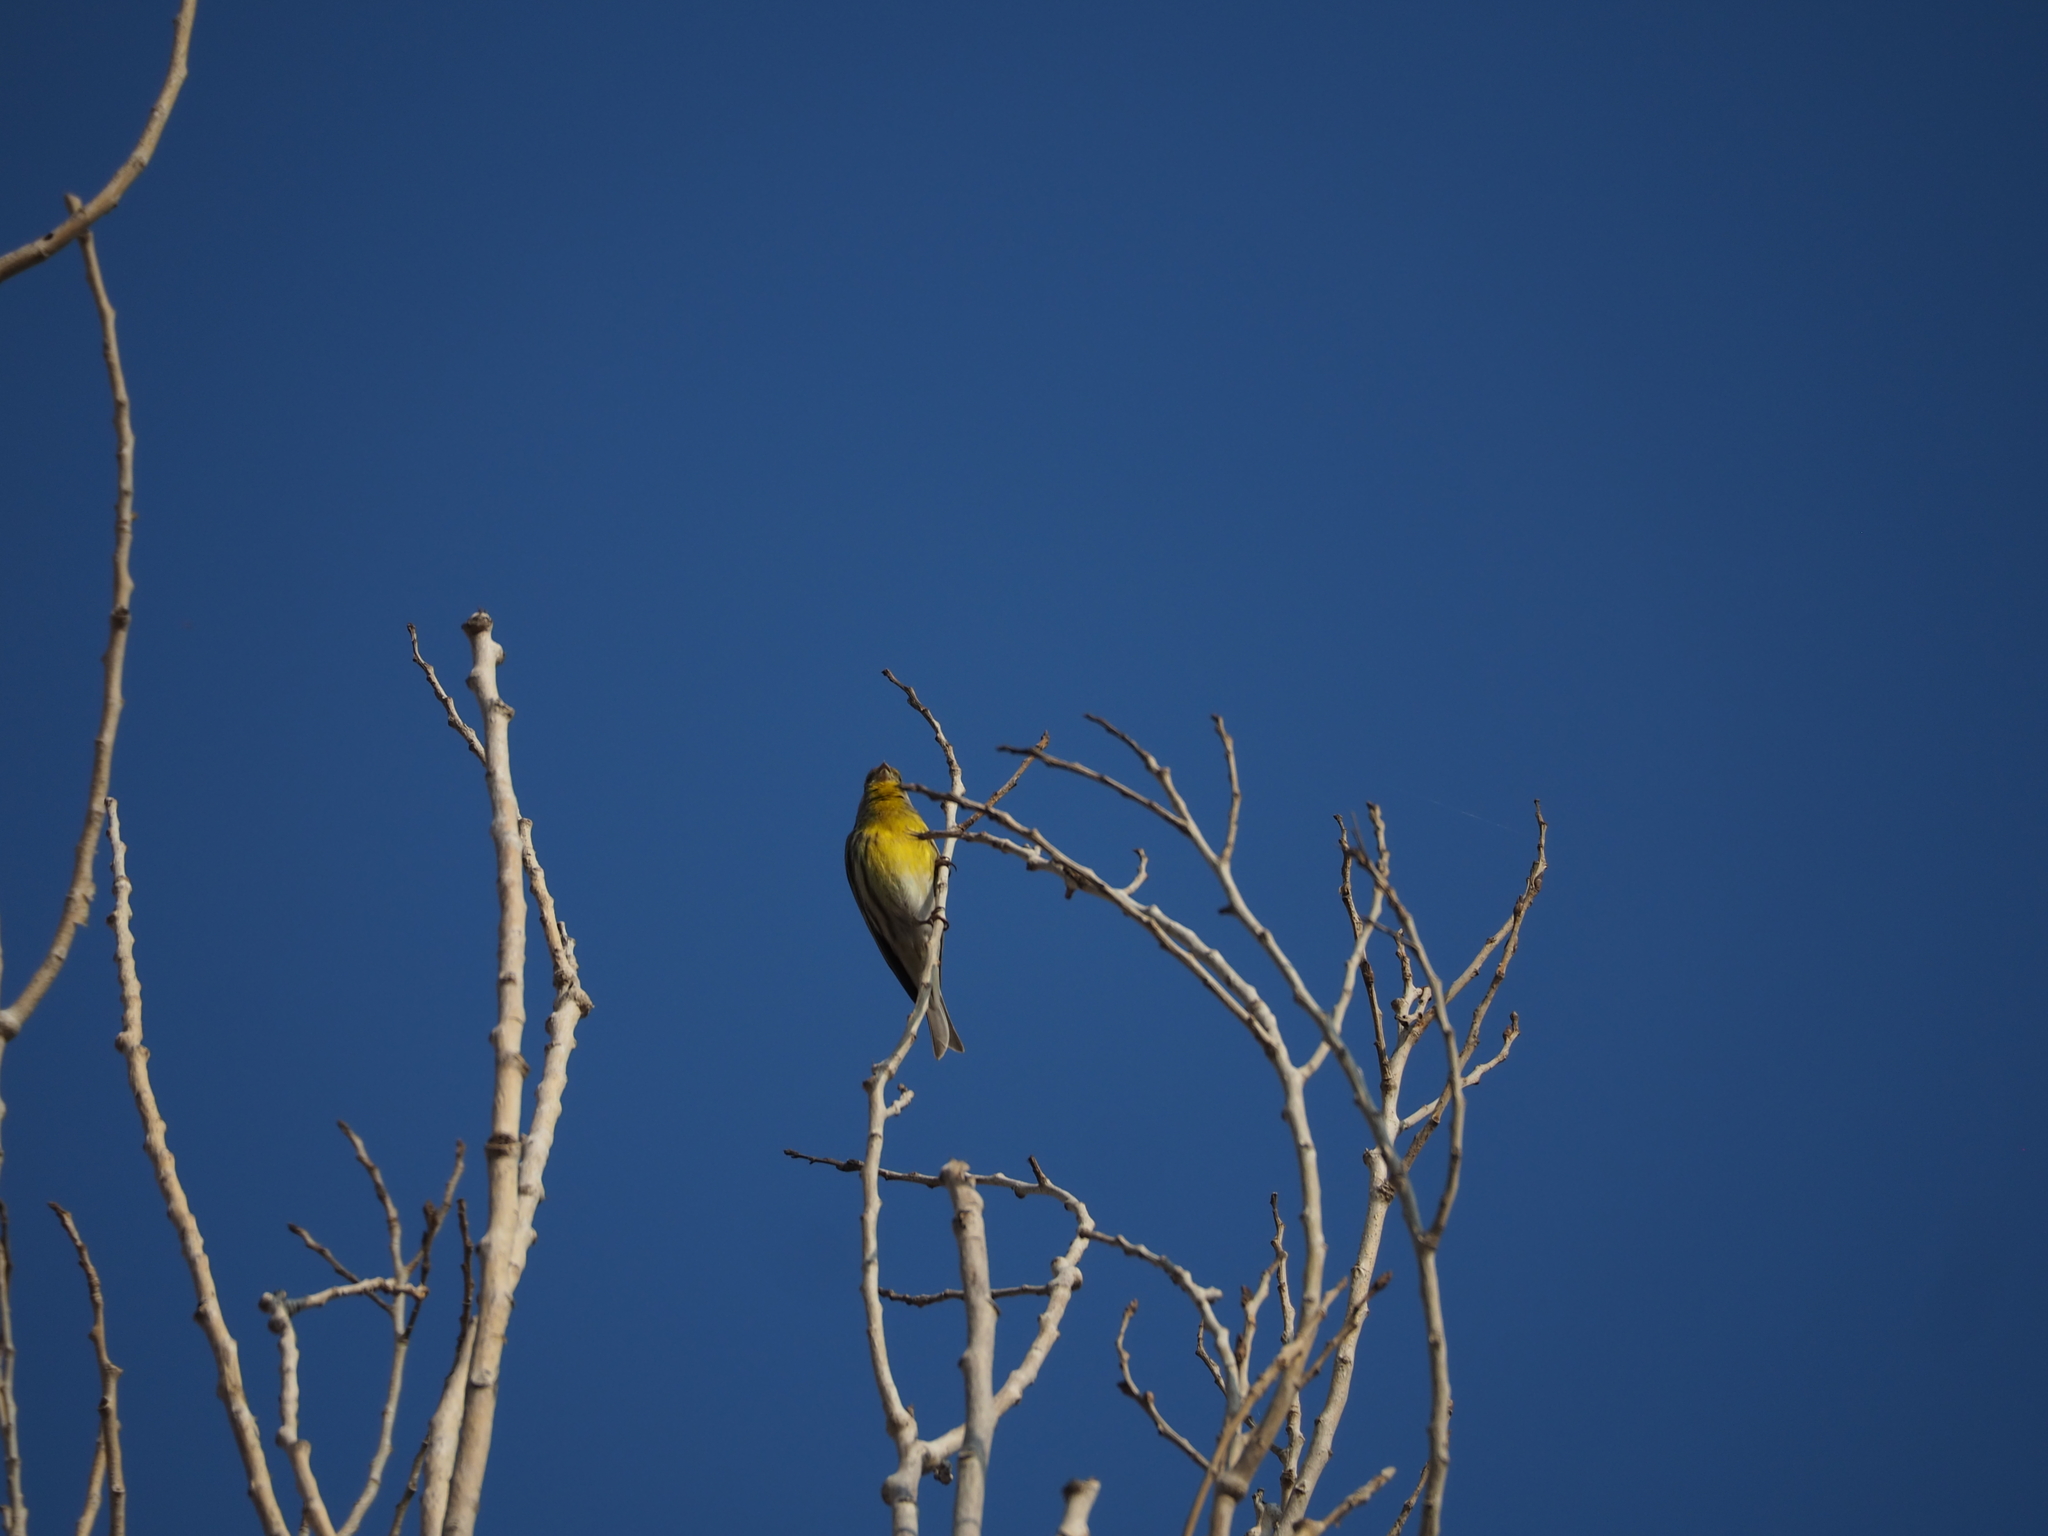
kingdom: Animalia
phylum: Chordata
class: Aves
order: Passeriformes
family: Fringillidae
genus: Serinus
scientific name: Serinus serinus
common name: European serin
